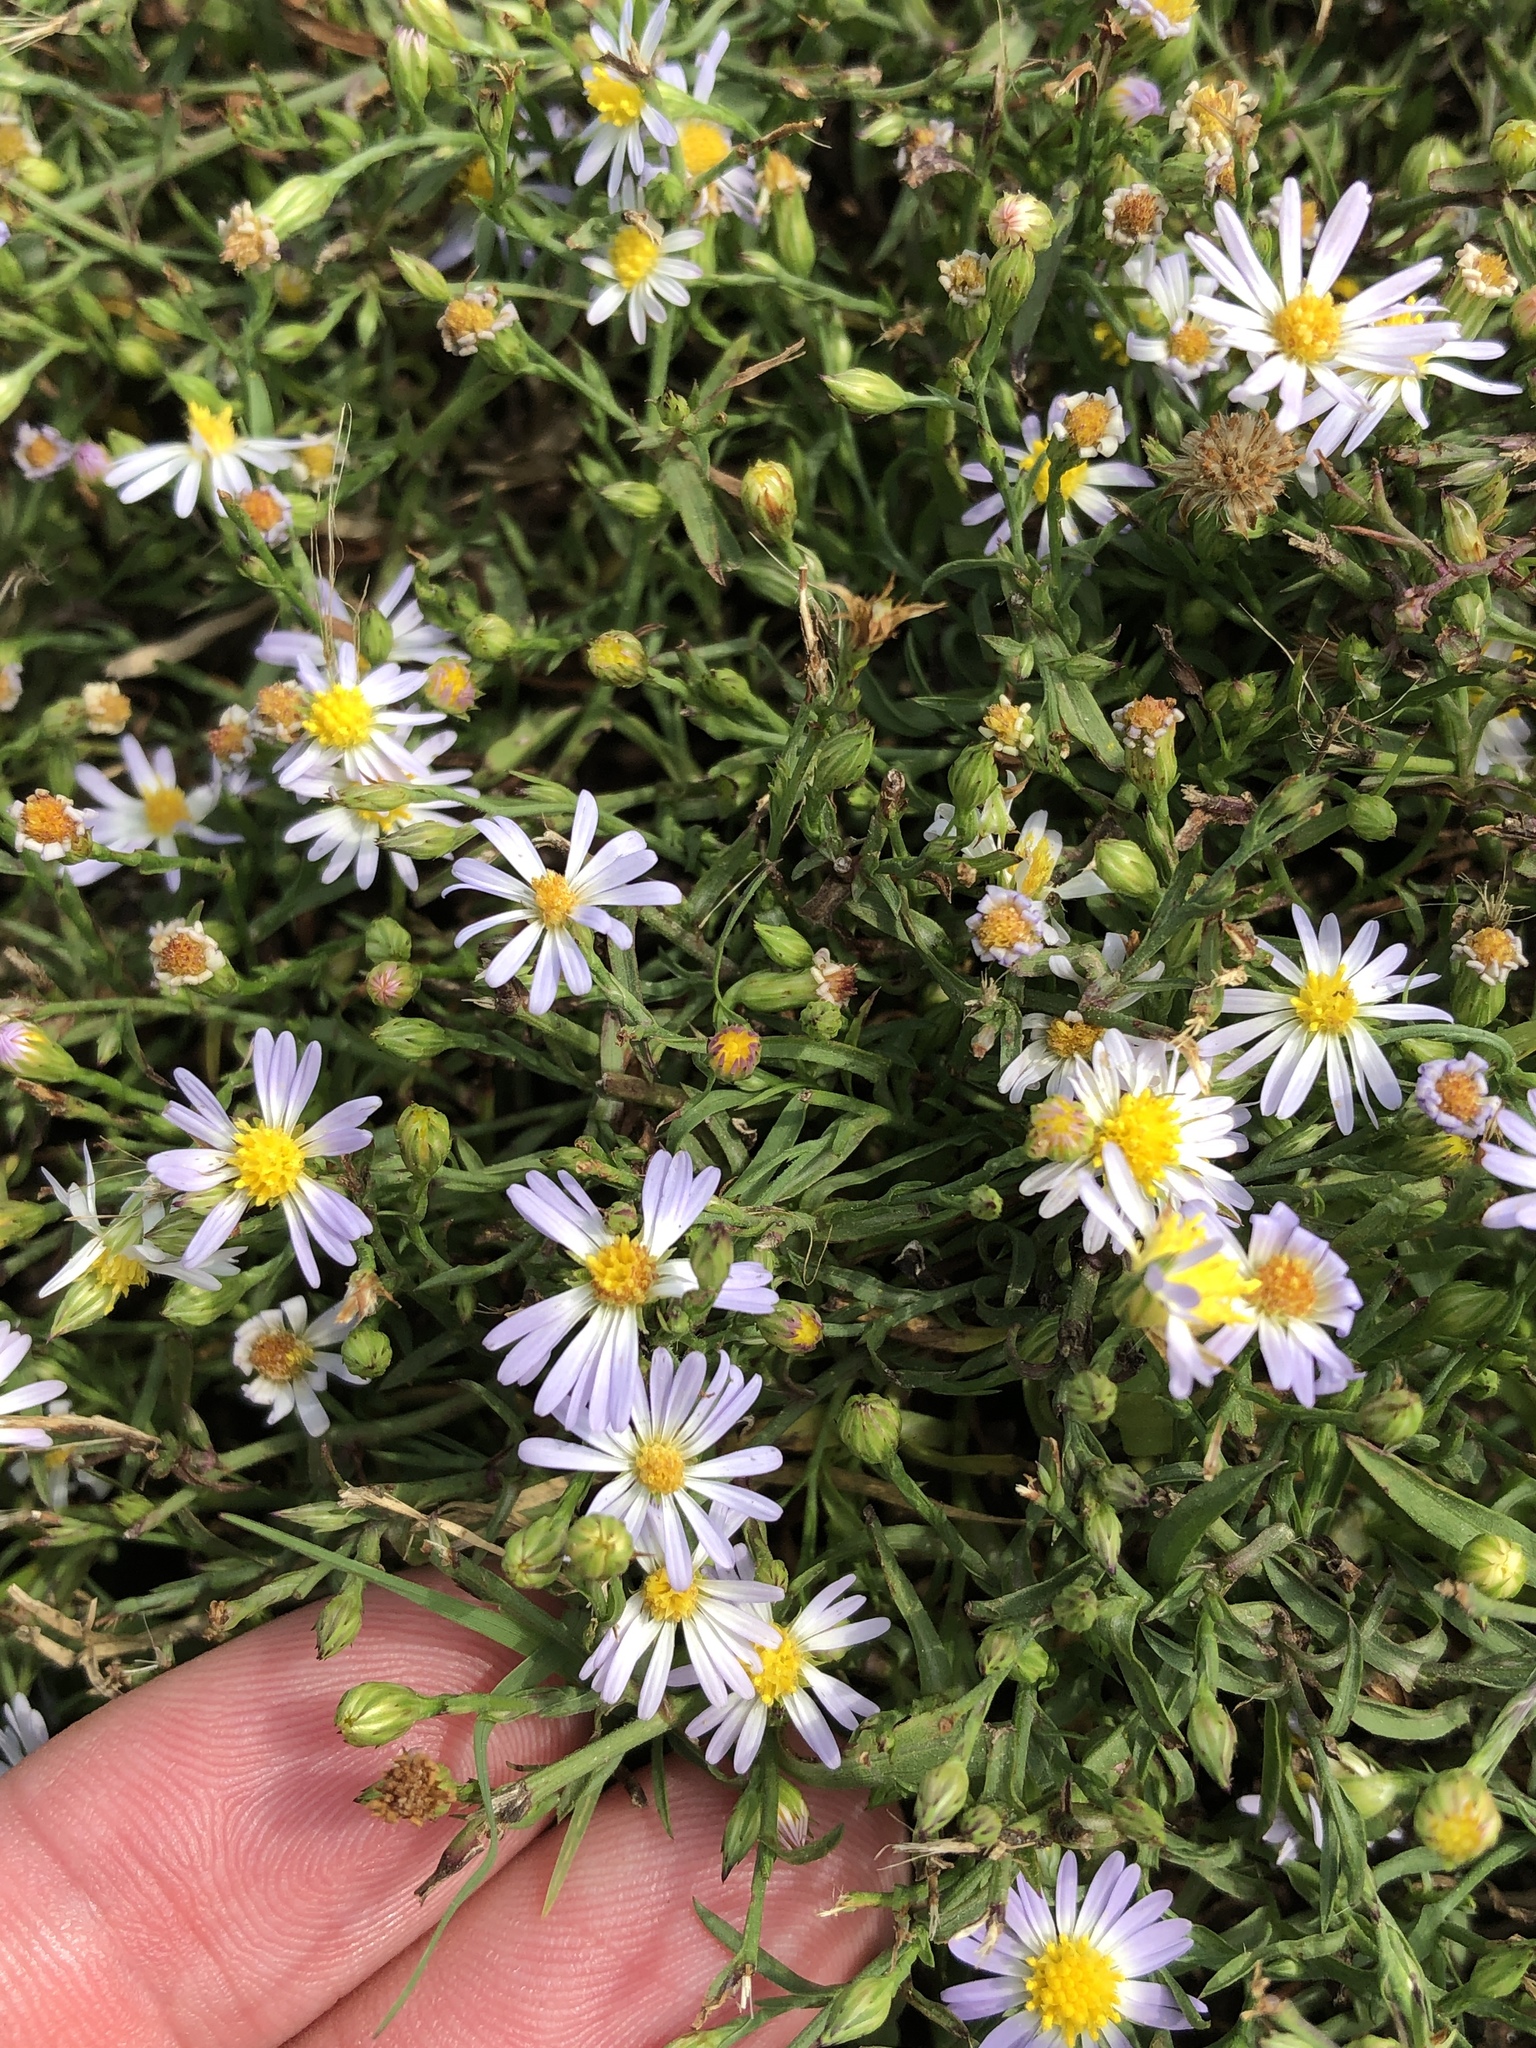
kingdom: Plantae
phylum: Tracheophyta
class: Magnoliopsida
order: Asterales
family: Asteraceae
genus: Symphyotrichum
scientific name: Symphyotrichum divaricatum
